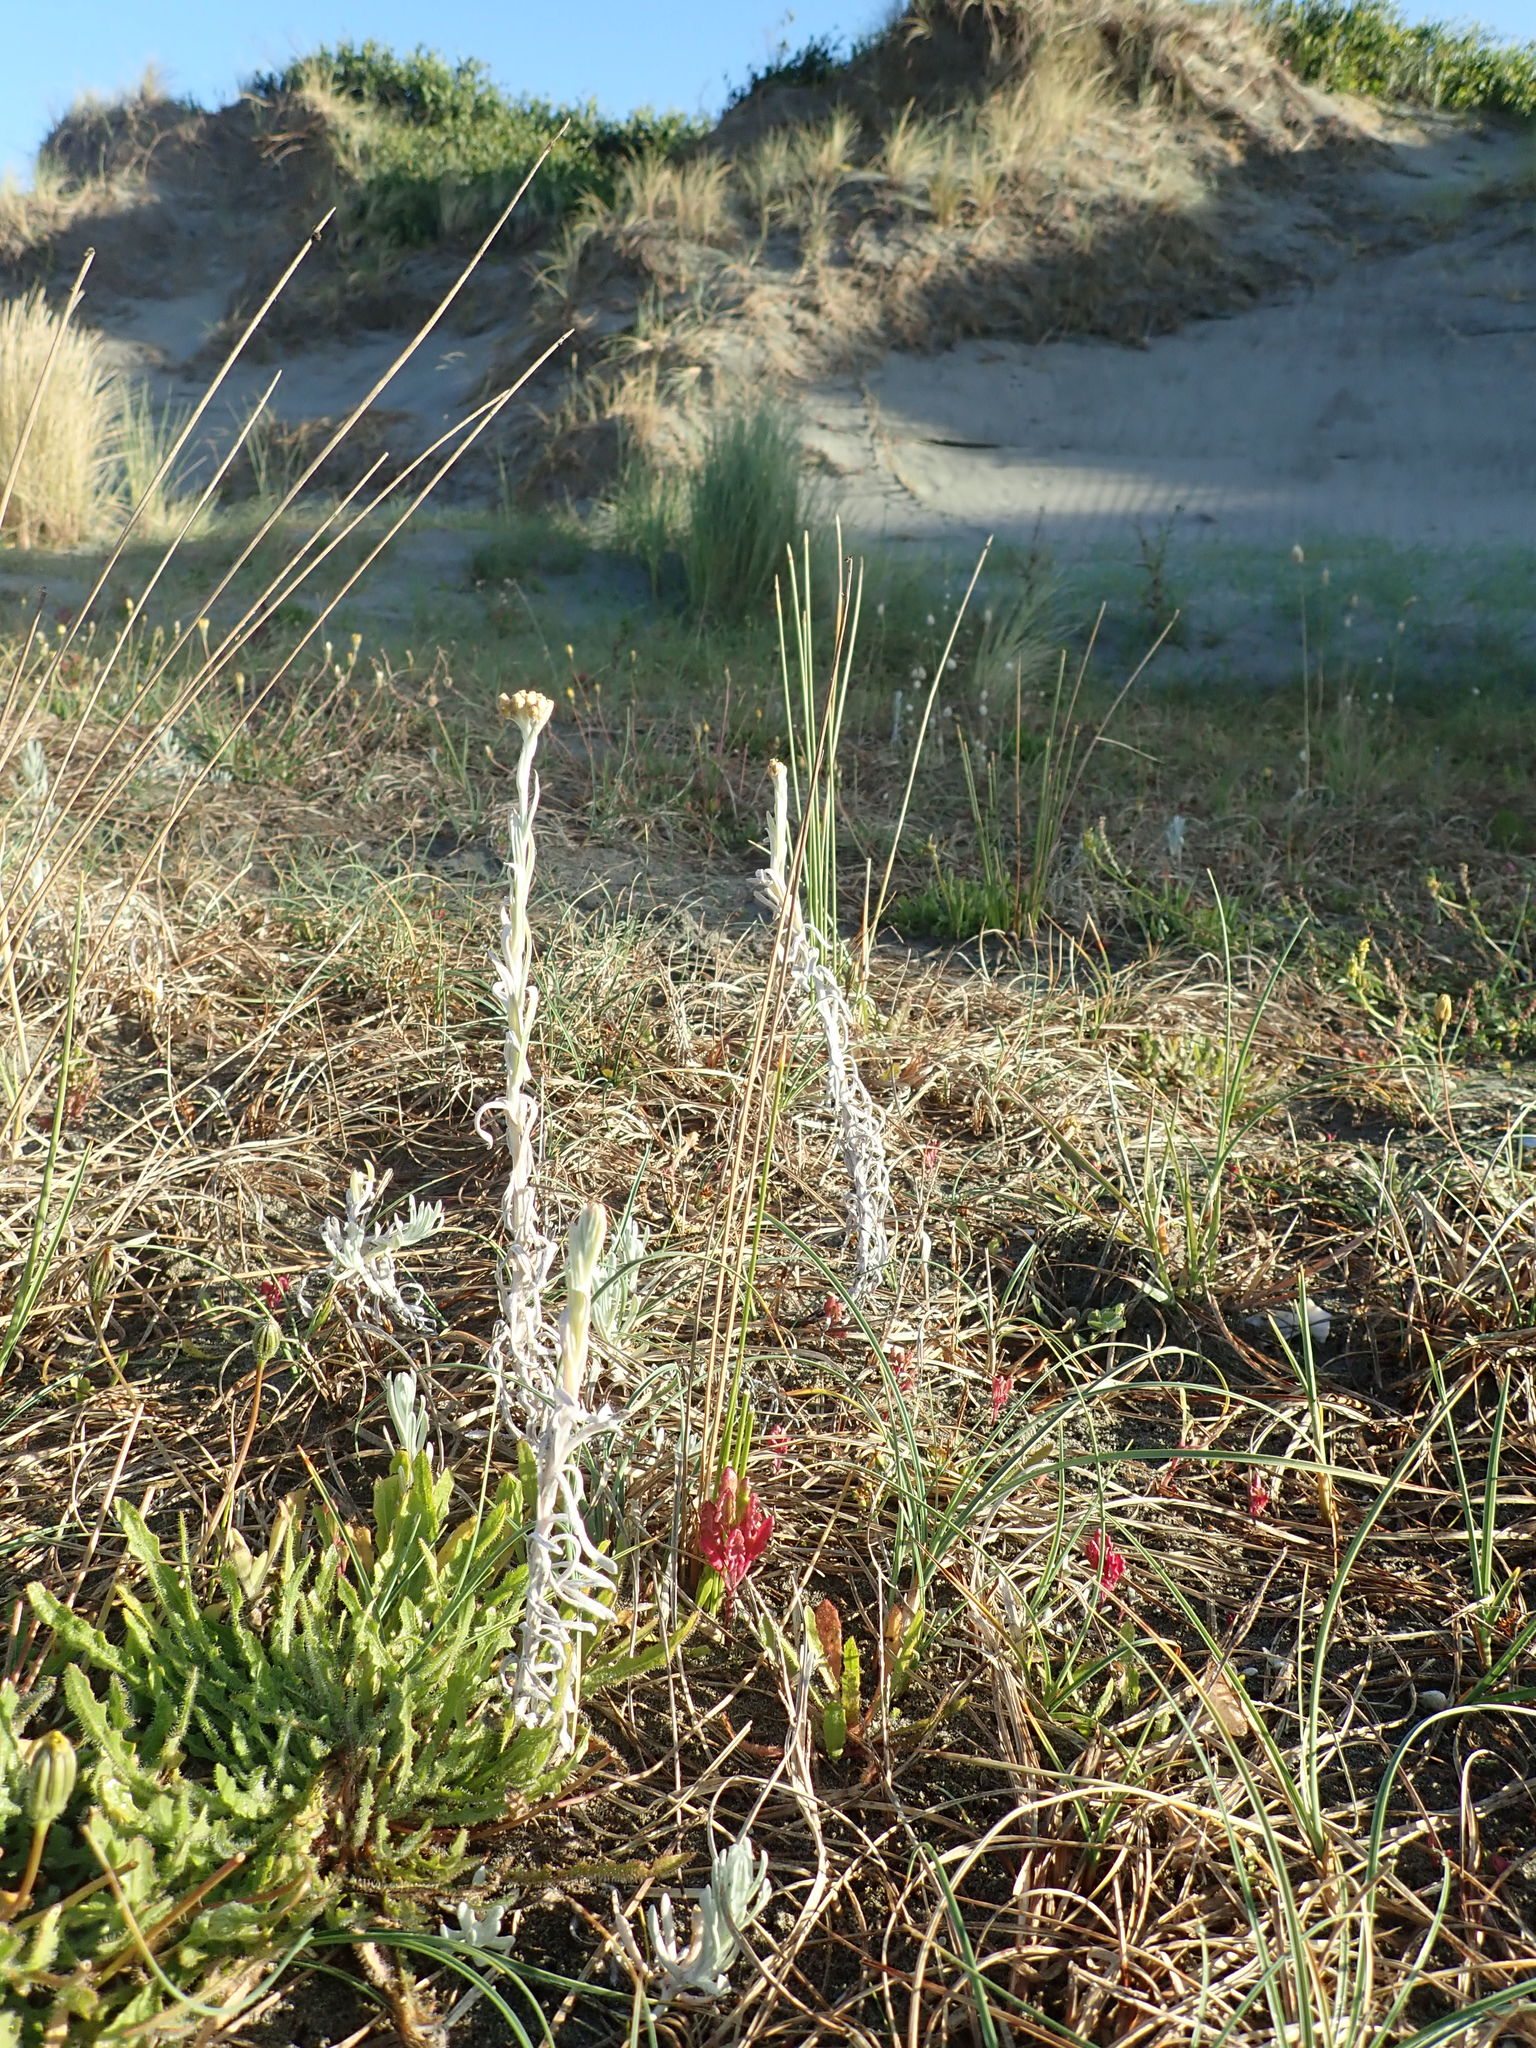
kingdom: Plantae
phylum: Tracheophyta
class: Magnoliopsida
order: Asterales
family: Asteraceae
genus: Helichrysum
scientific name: Helichrysum luteoalbum
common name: Daisy
